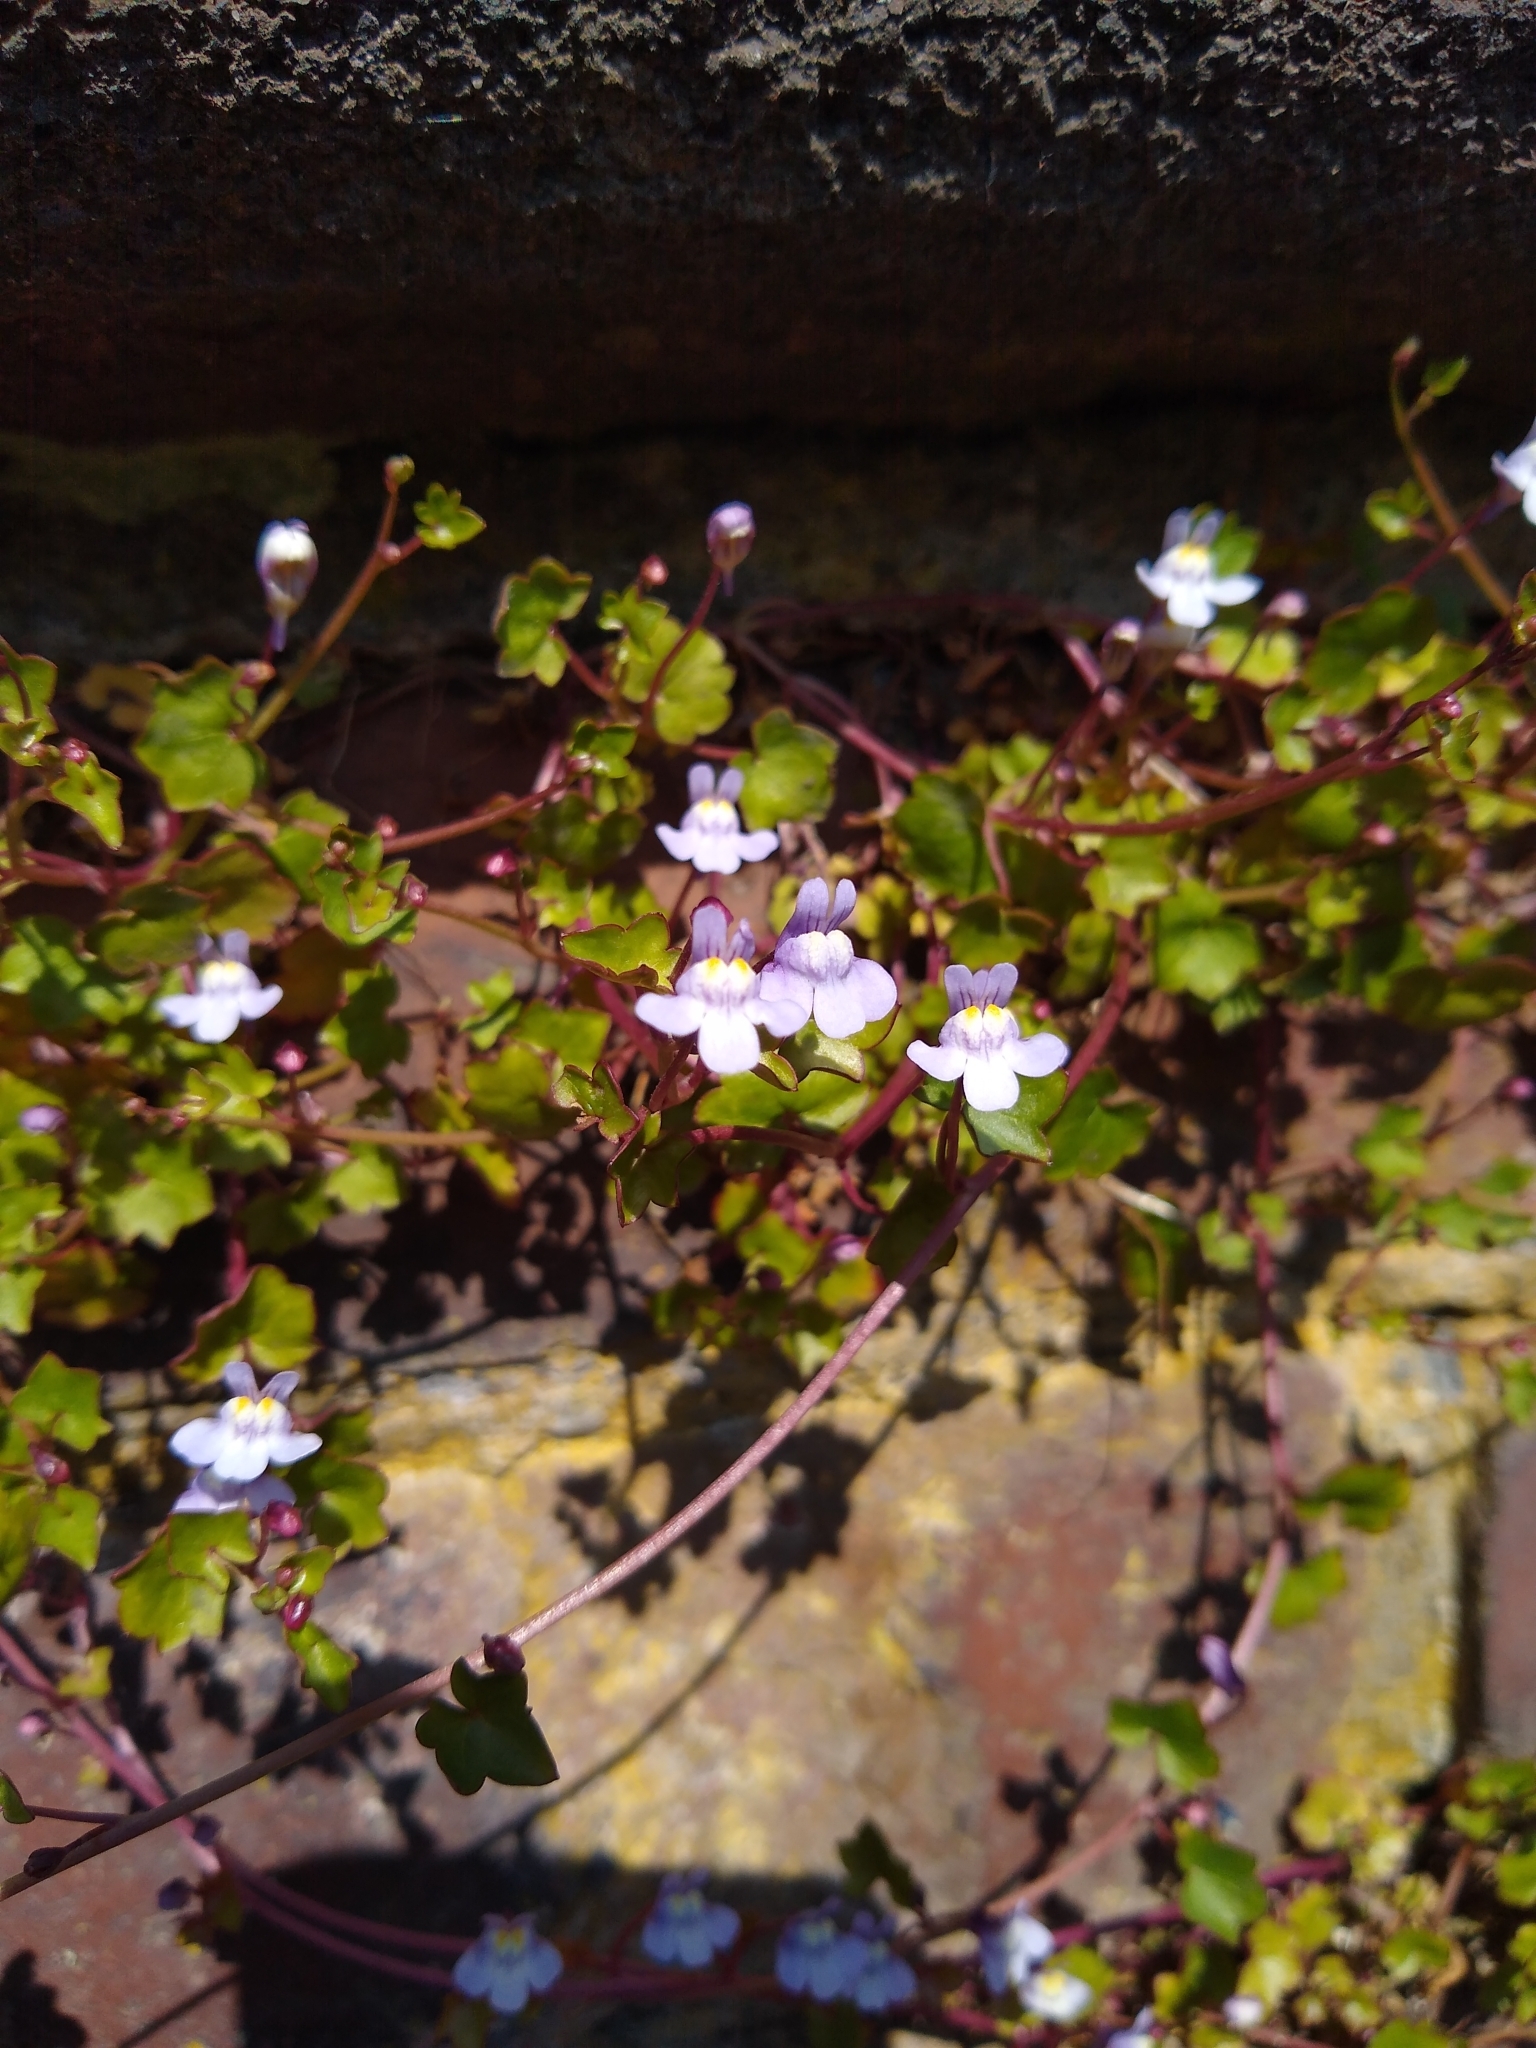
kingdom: Plantae
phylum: Tracheophyta
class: Magnoliopsida
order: Lamiales
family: Plantaginaceae
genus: Cymbalaria
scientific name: Cymbalaria muralis
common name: Ivy-leaved toadflax
